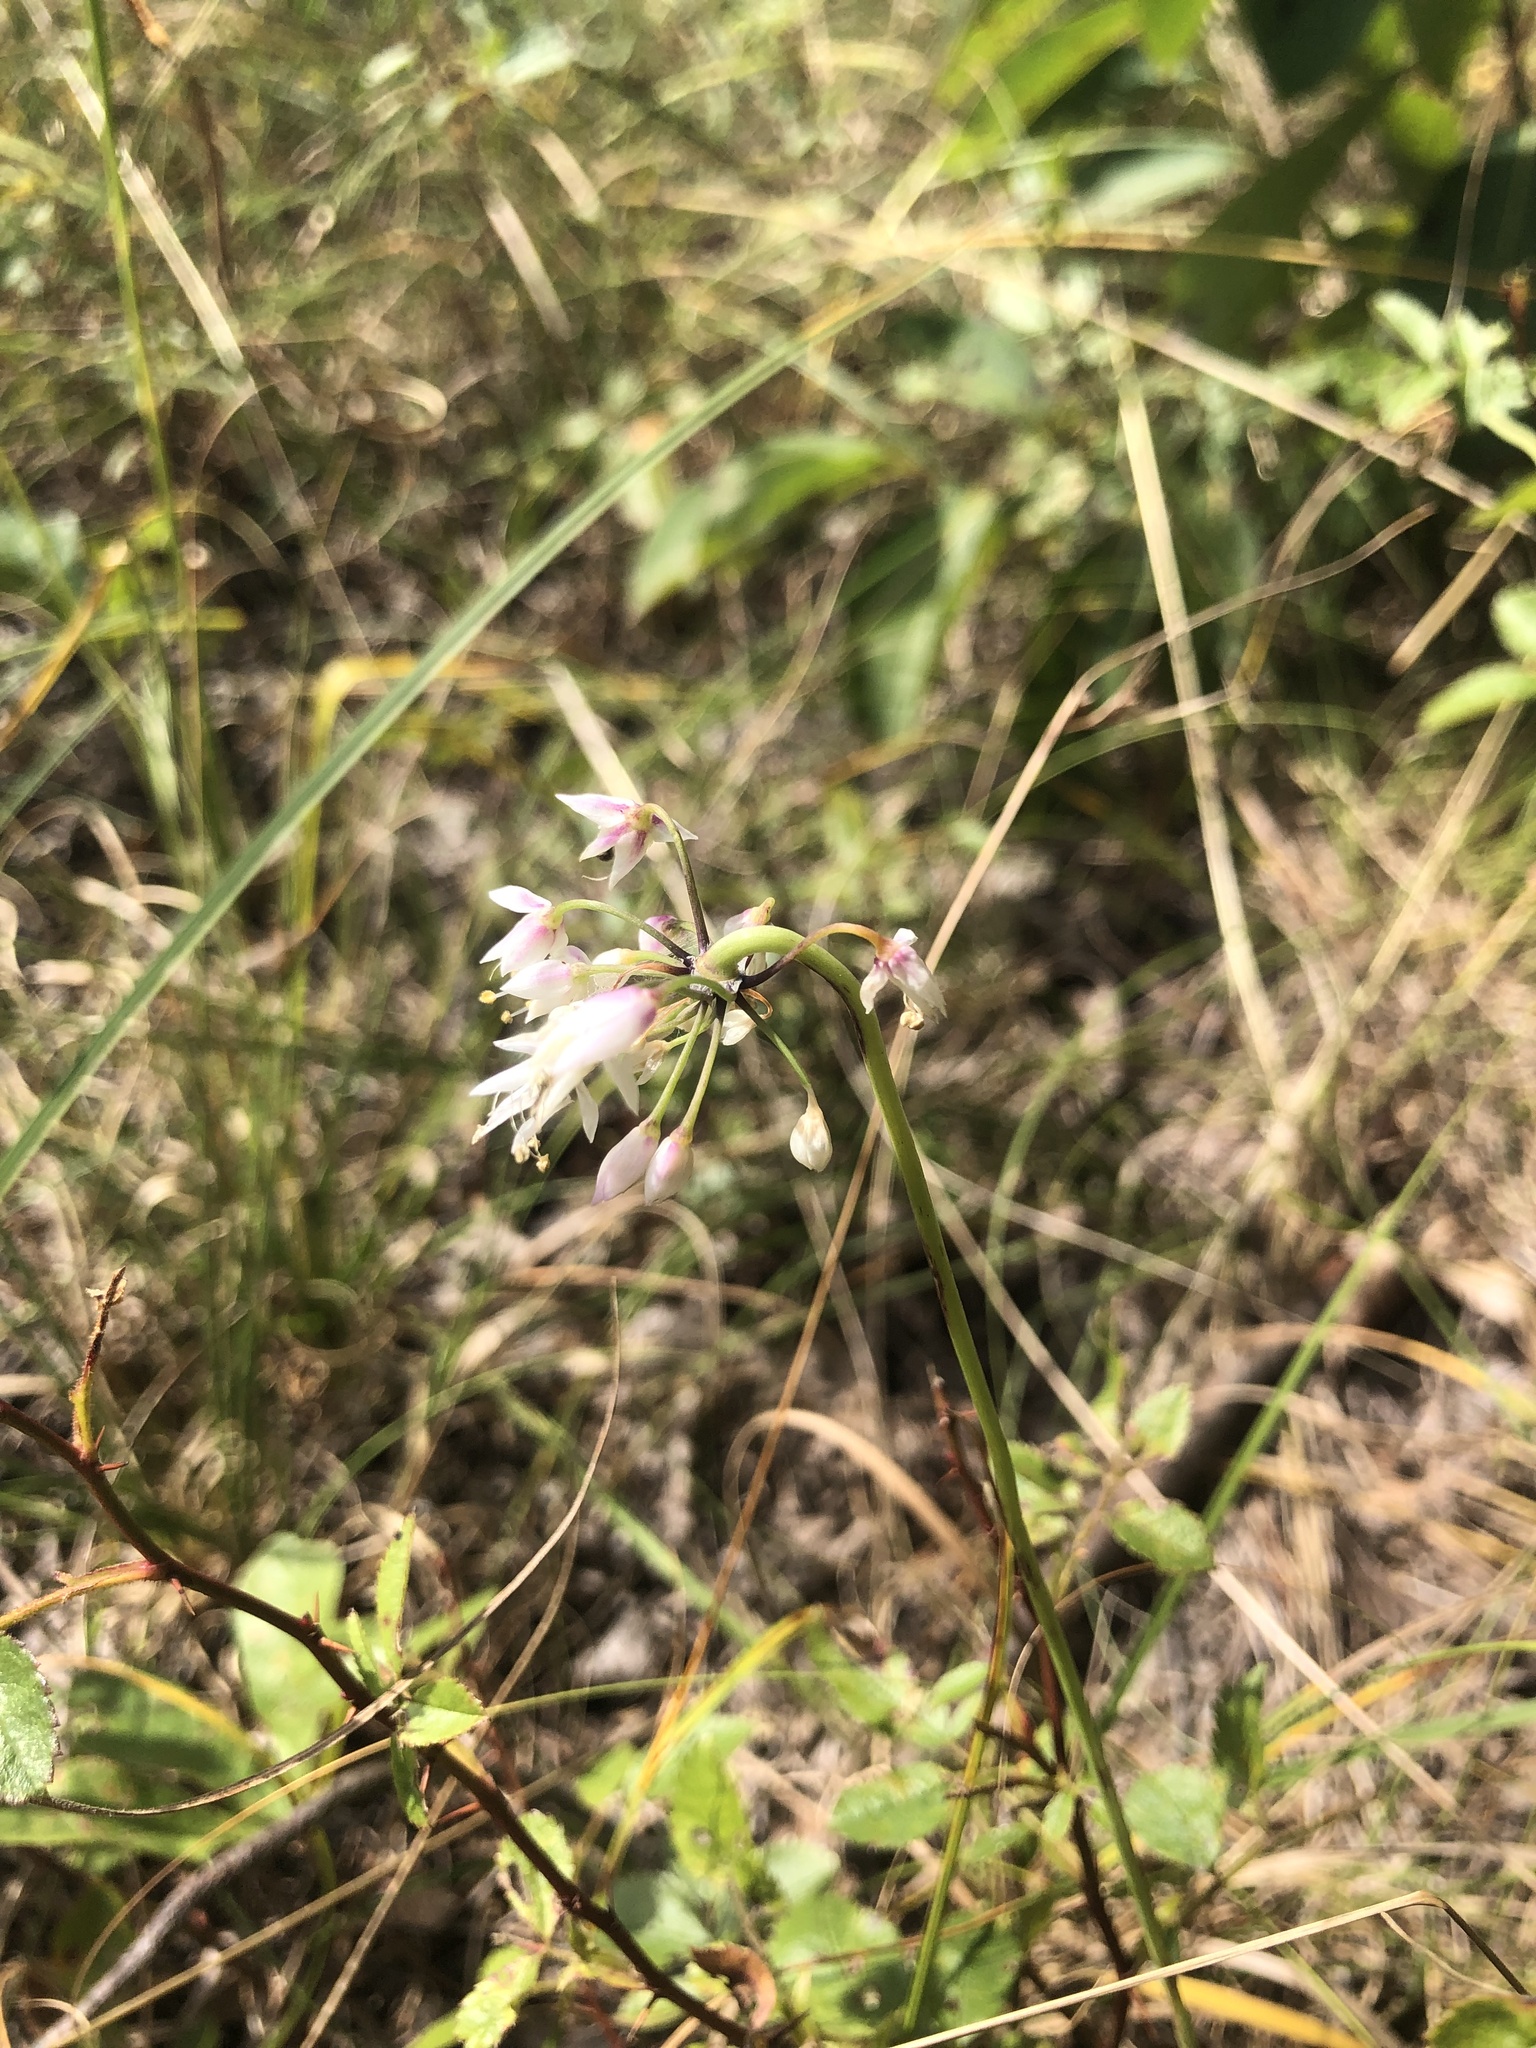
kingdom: Plantae
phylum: Tracheophyta
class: Liliopsida
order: Asparagales
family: Amaryllidaceae
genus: Allium
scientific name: Allium cernuum
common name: Nodding onion
